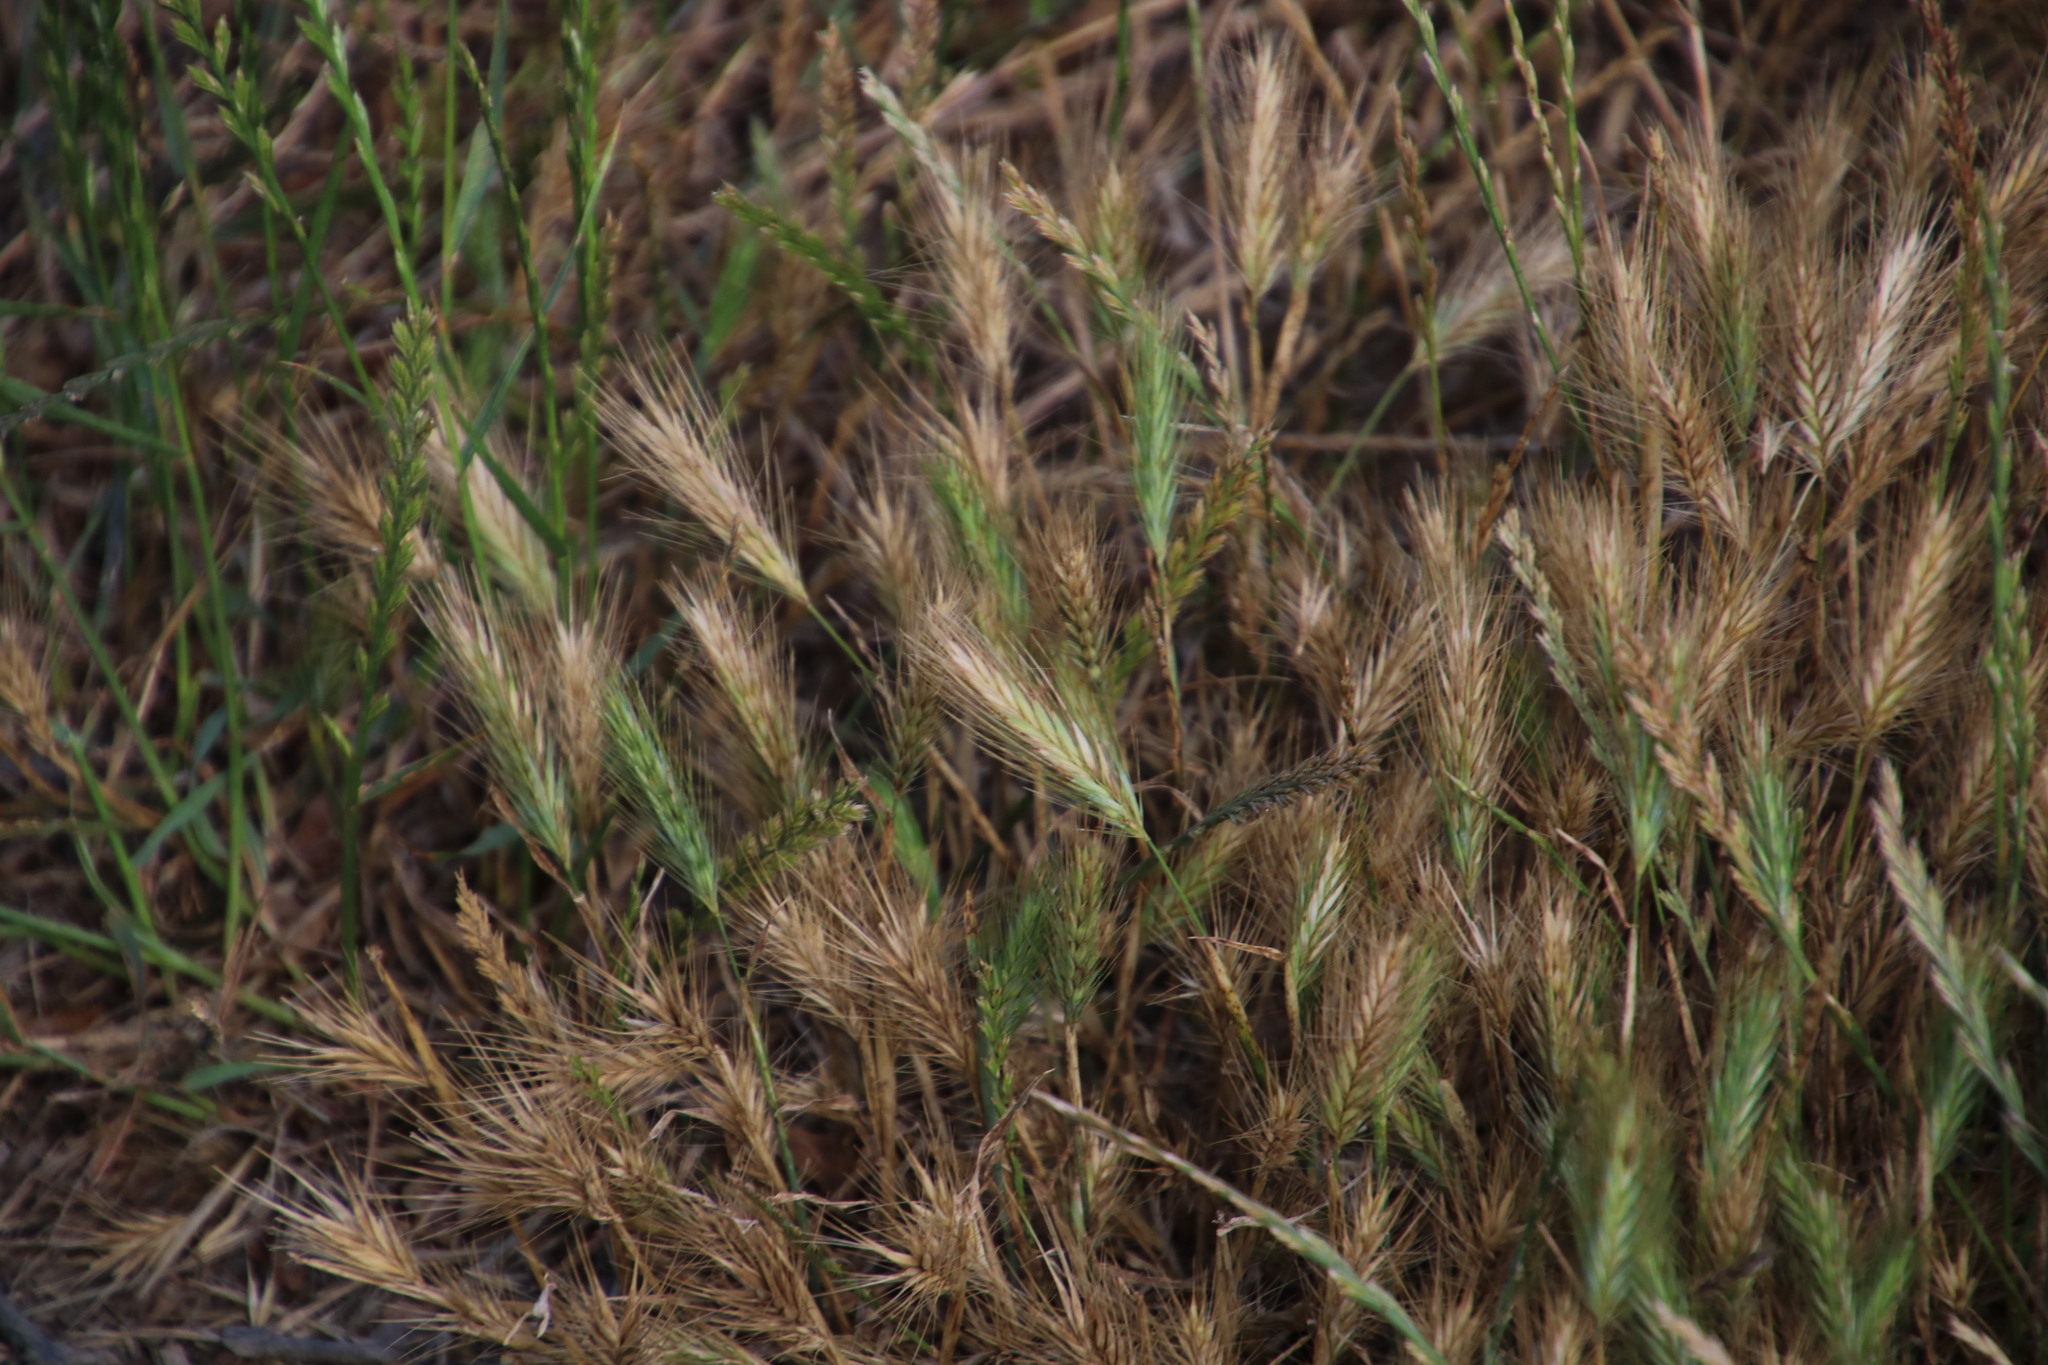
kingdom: Plantae
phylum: Tracheophyta
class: Liliopsida
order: Poales
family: Poaceae
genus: Hordeum
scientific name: Hordeum murinum
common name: Wall barley
